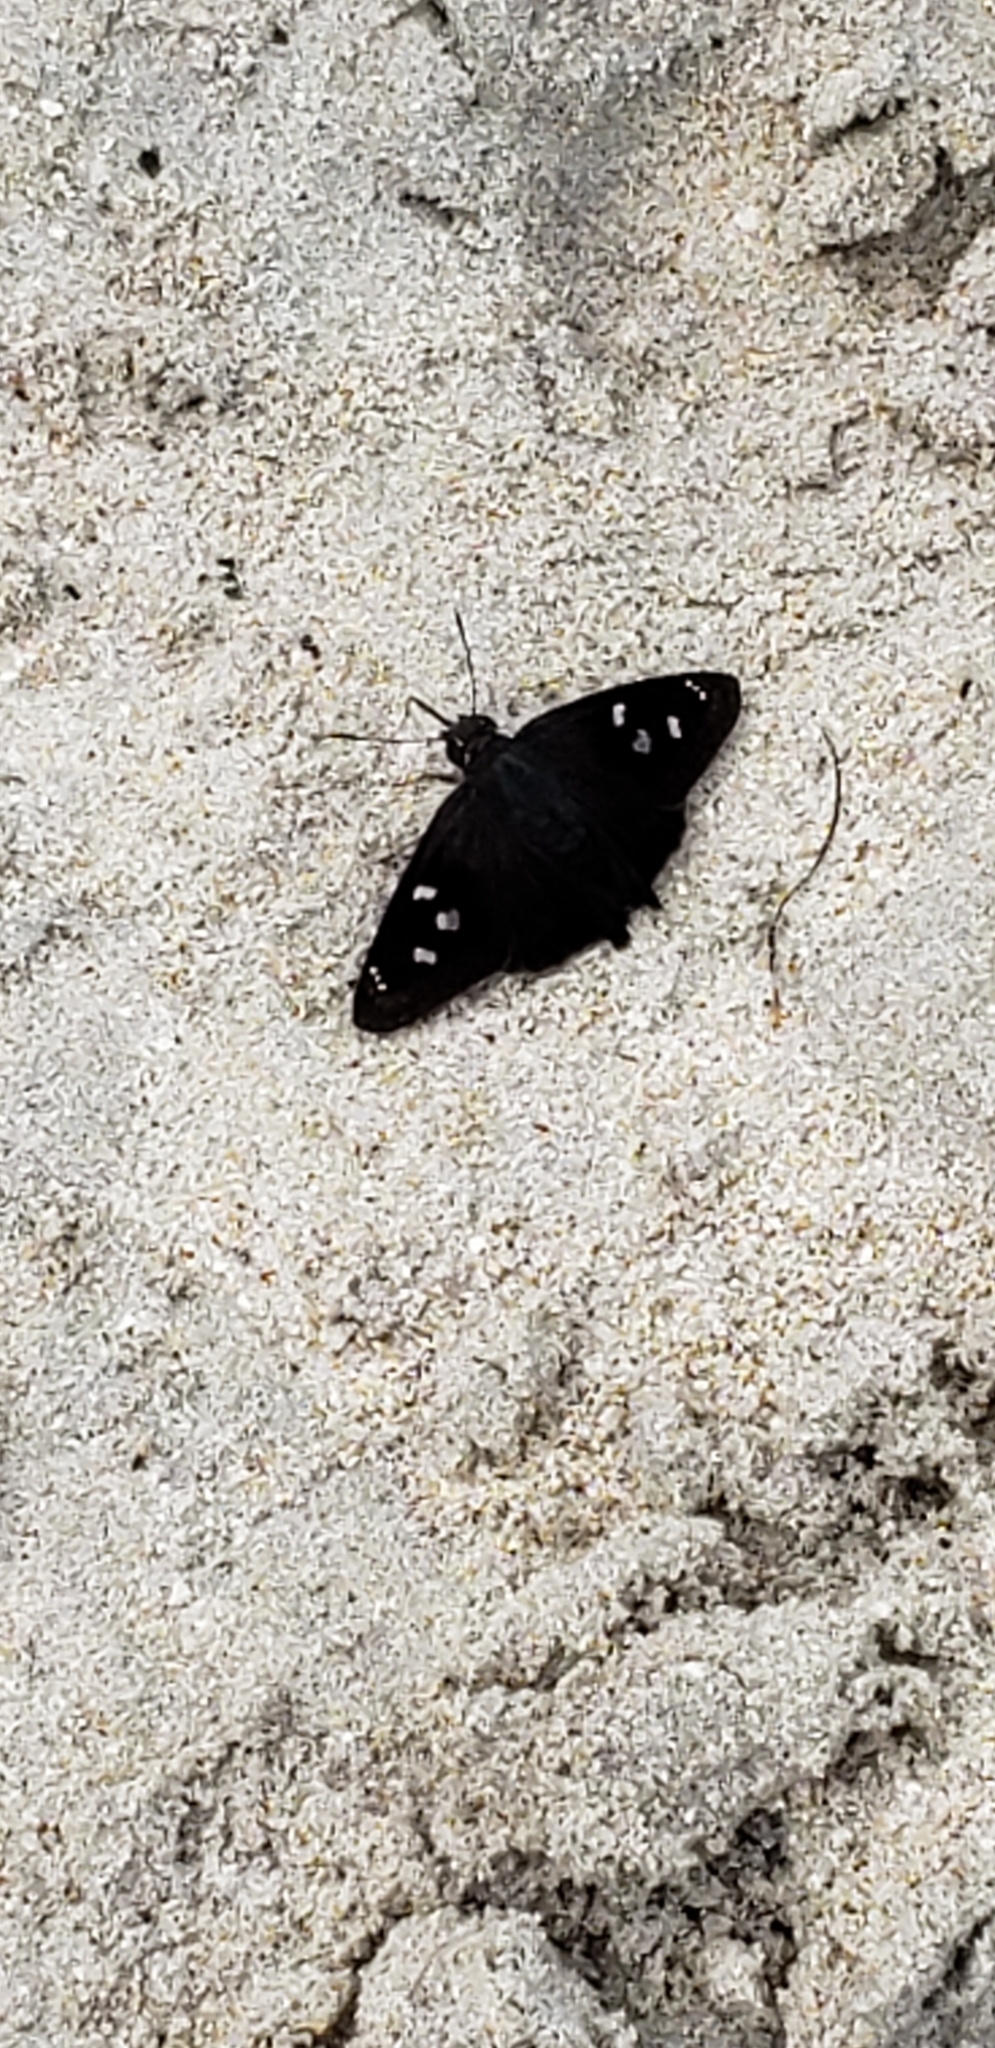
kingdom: Animalia
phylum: Arthropoda
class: Insecta
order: Lepidoptera
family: Hesperiidae
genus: Polygonus
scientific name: Polygonus leo
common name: Hammoch skipper
